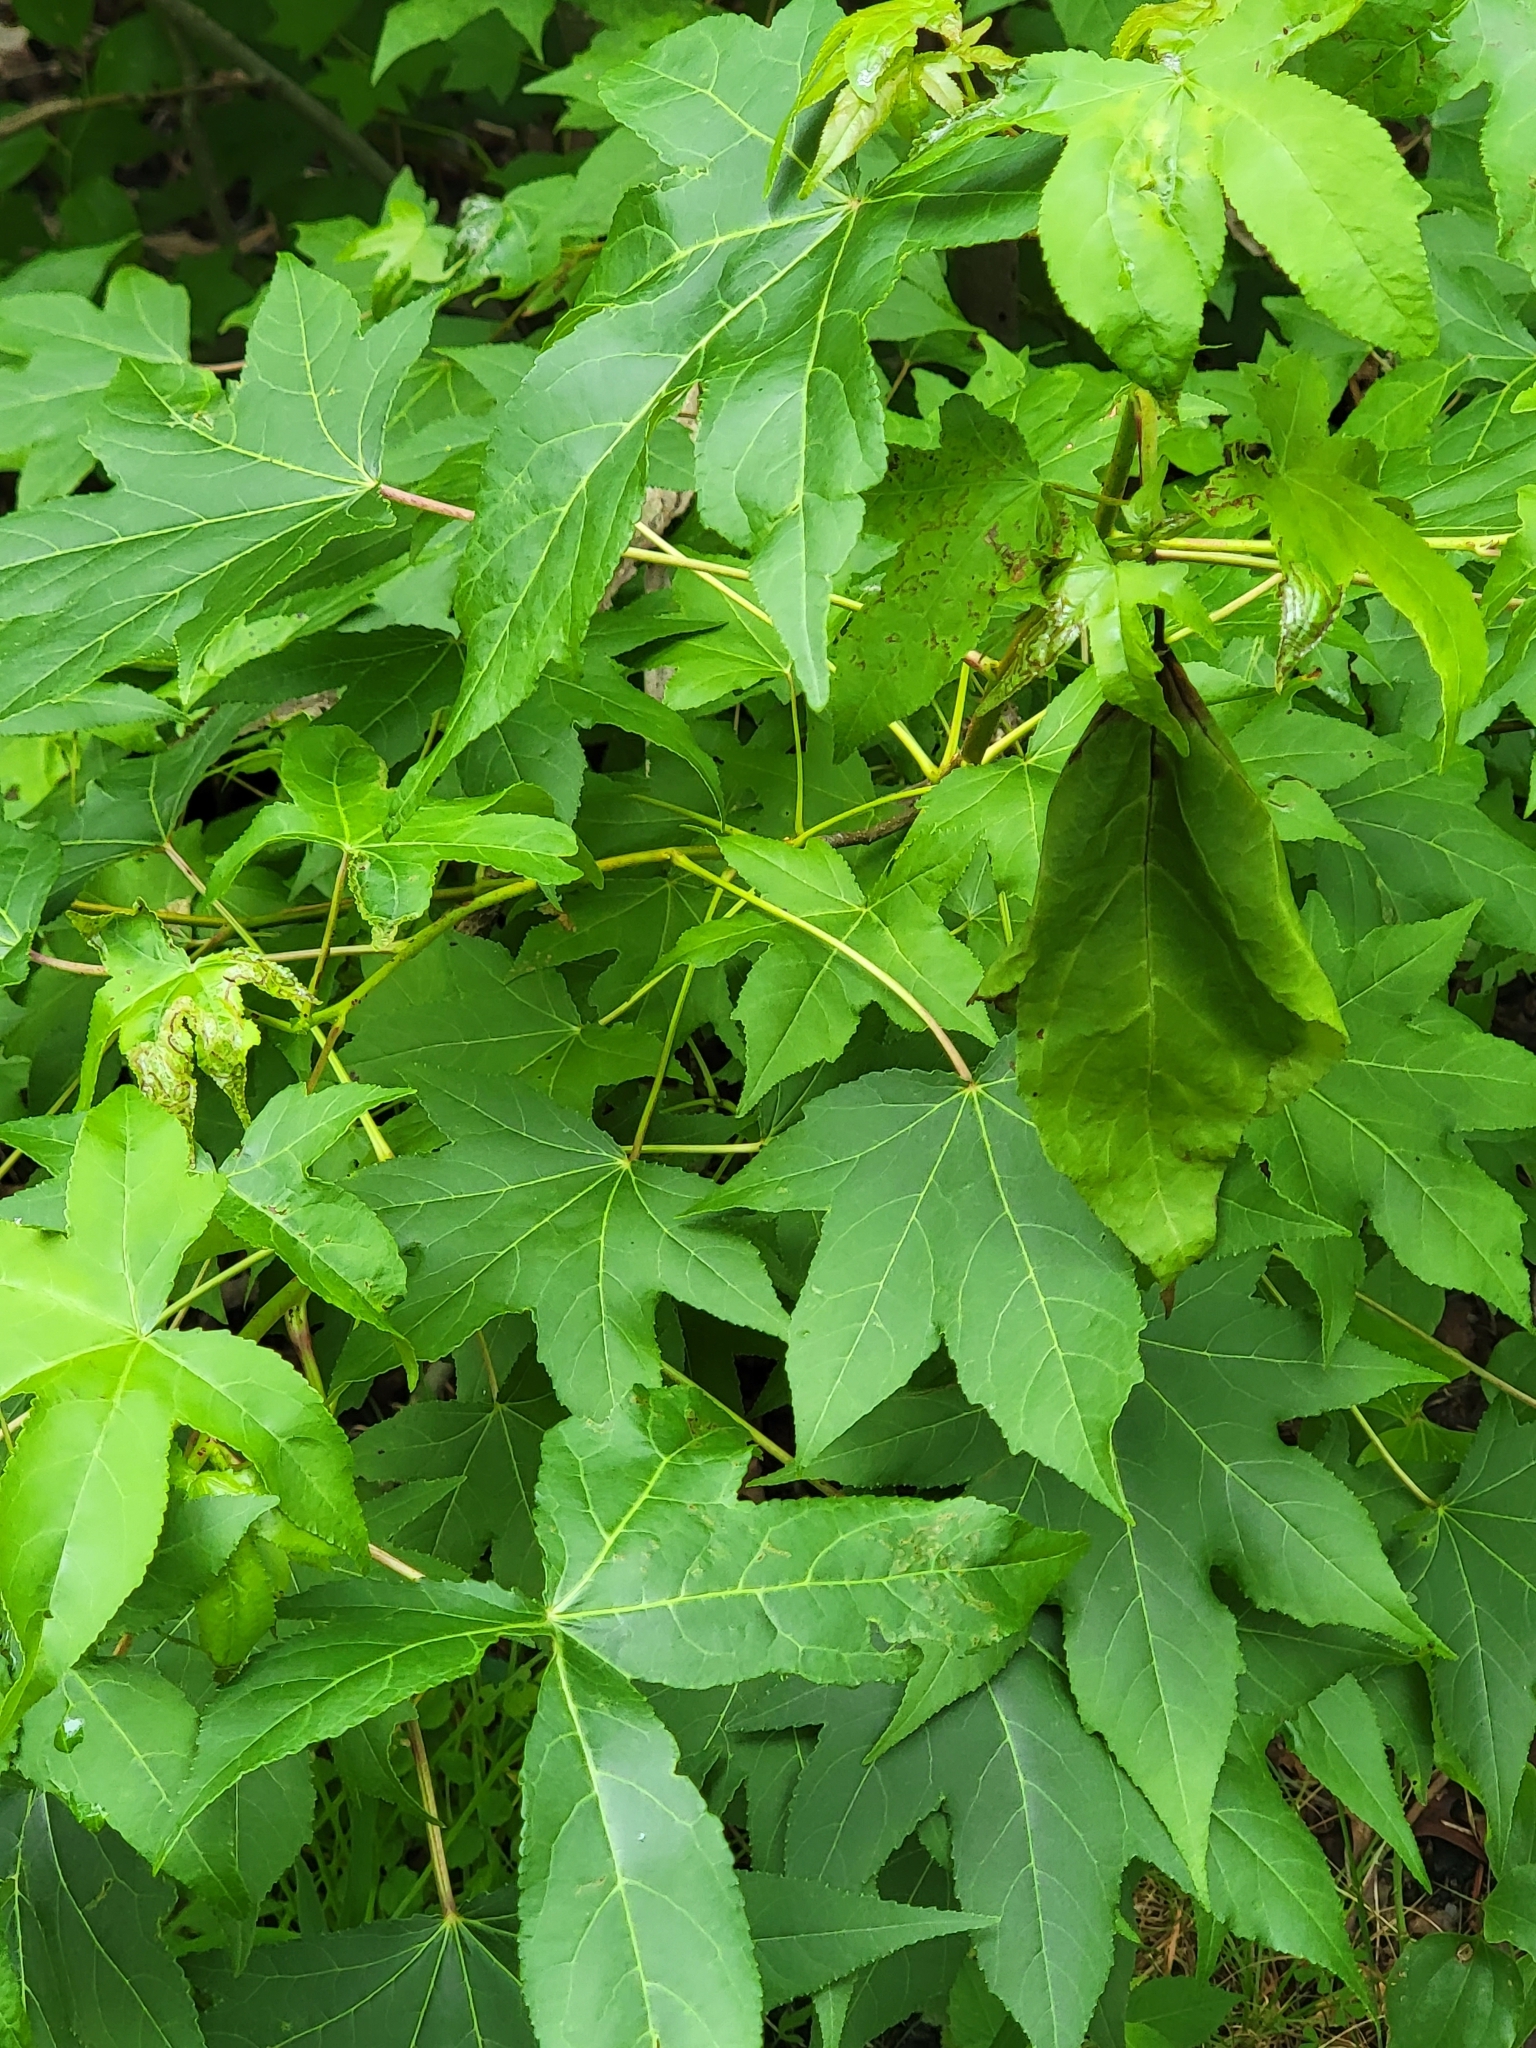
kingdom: Plantae
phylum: Tracheophyta
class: Magnoliopsida
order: Saxifragales
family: Altingiaceae
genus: Liquidambar
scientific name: Liquidambar styraciflua
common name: Sweet gum
